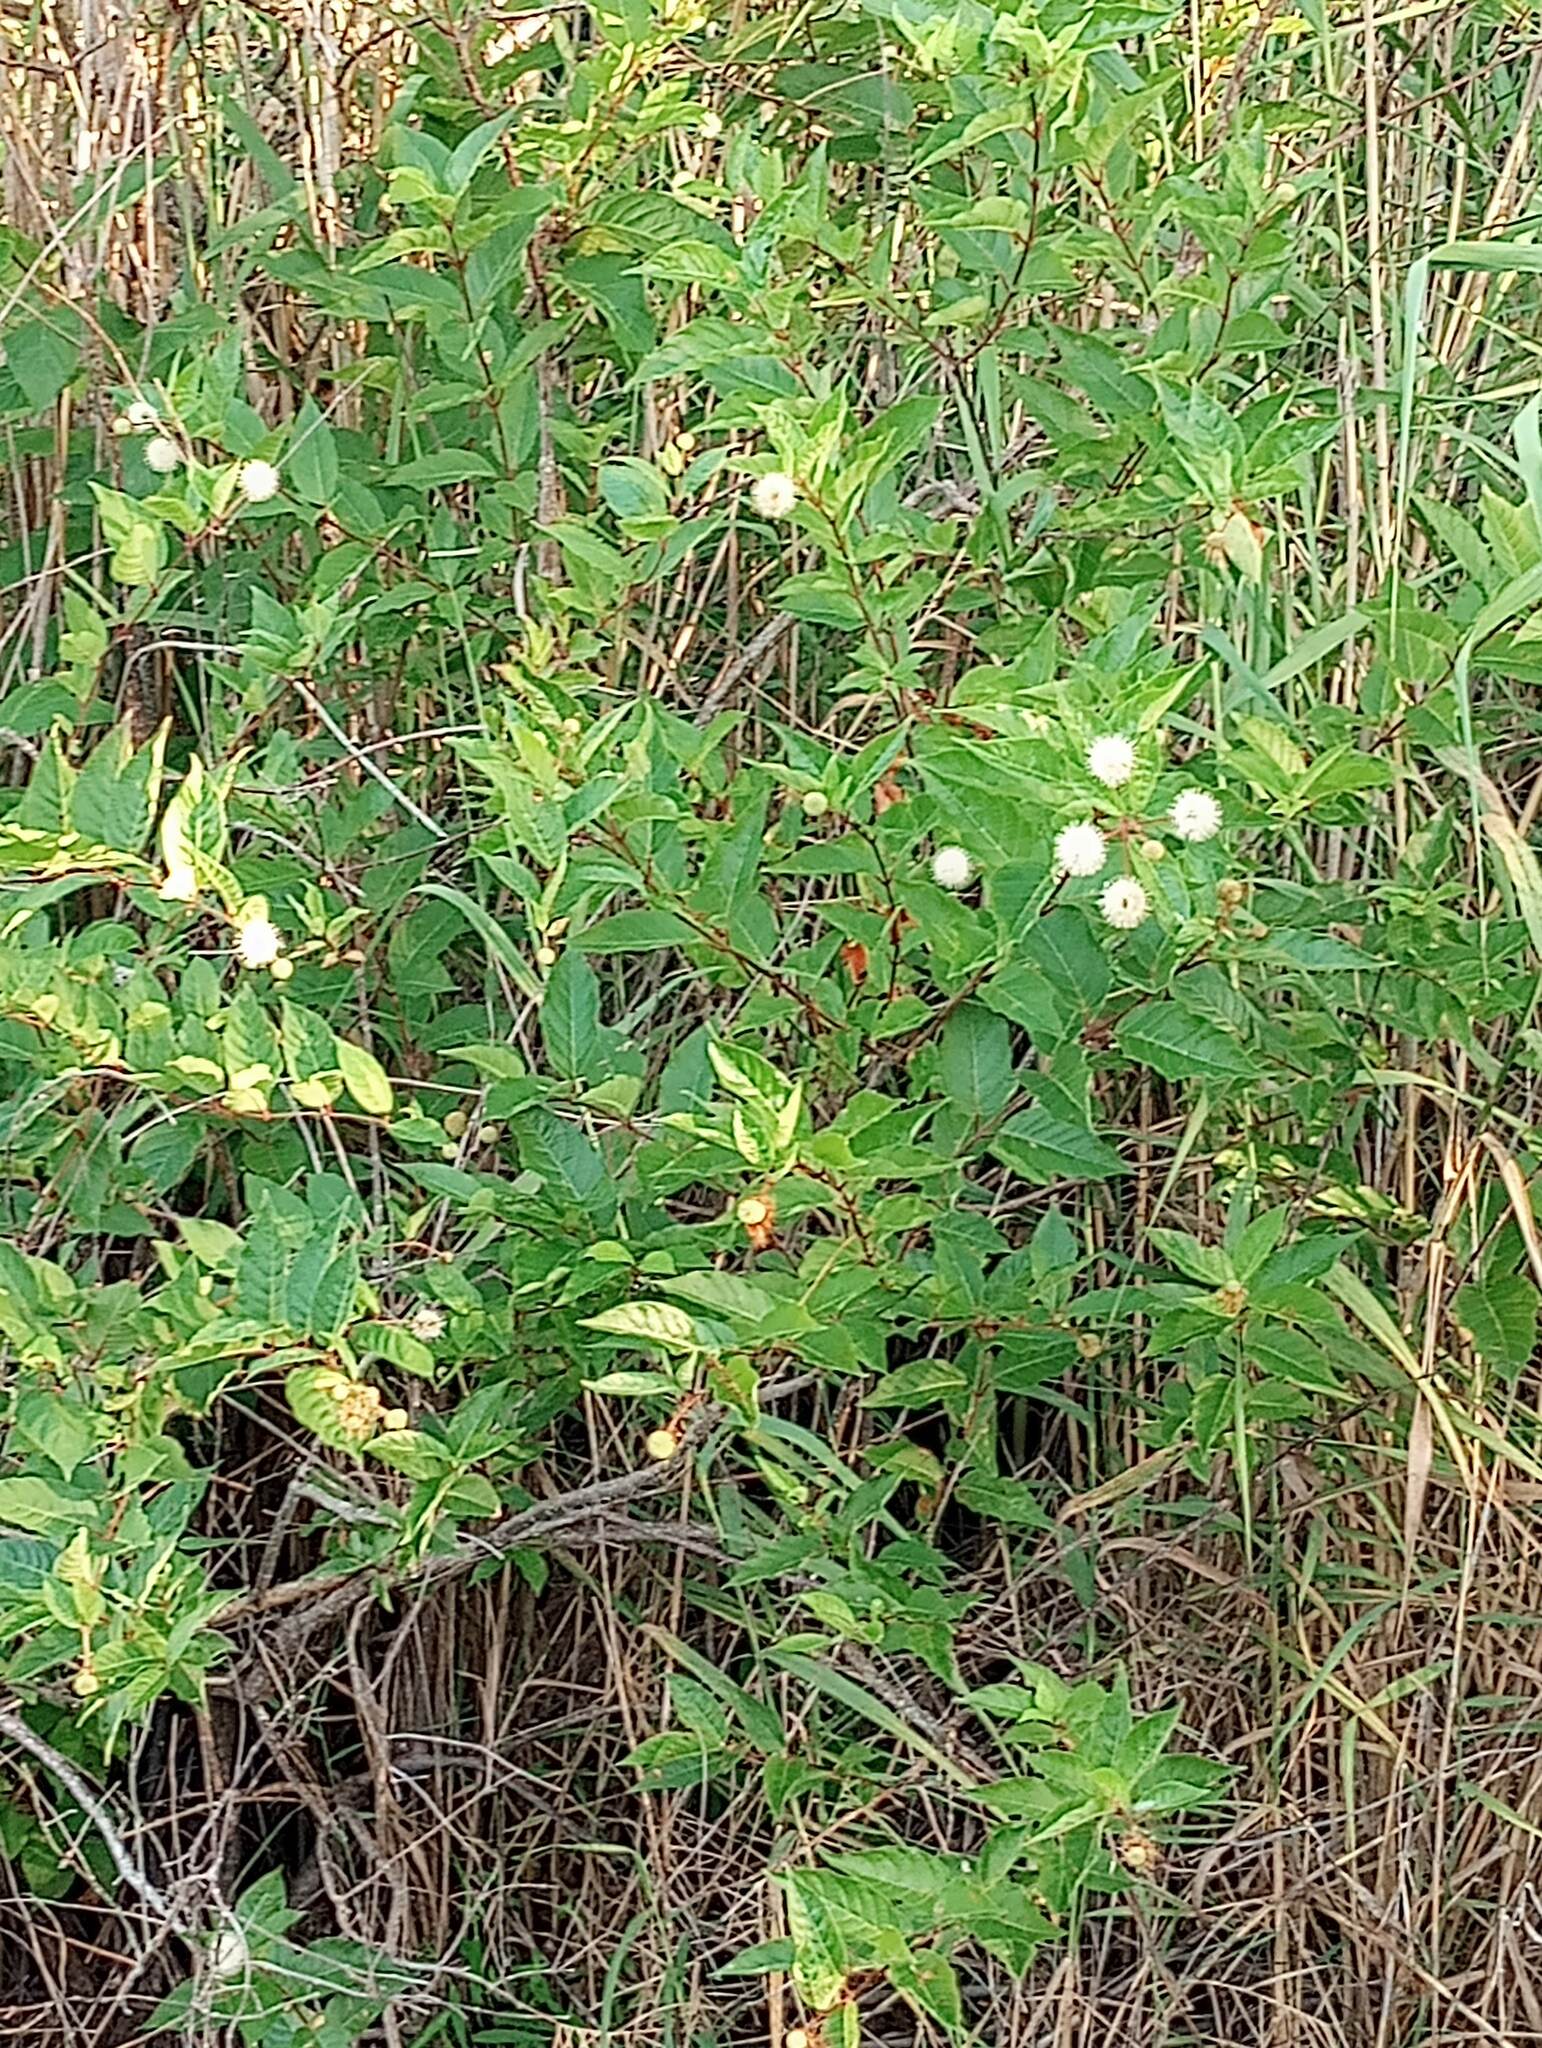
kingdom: Plantae
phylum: Tracheophyta
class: Magnoliopsida
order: Gentianales
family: Rubiaceae
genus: Cephalanthus
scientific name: Cephalanthus occidentalis
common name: Button-willow
